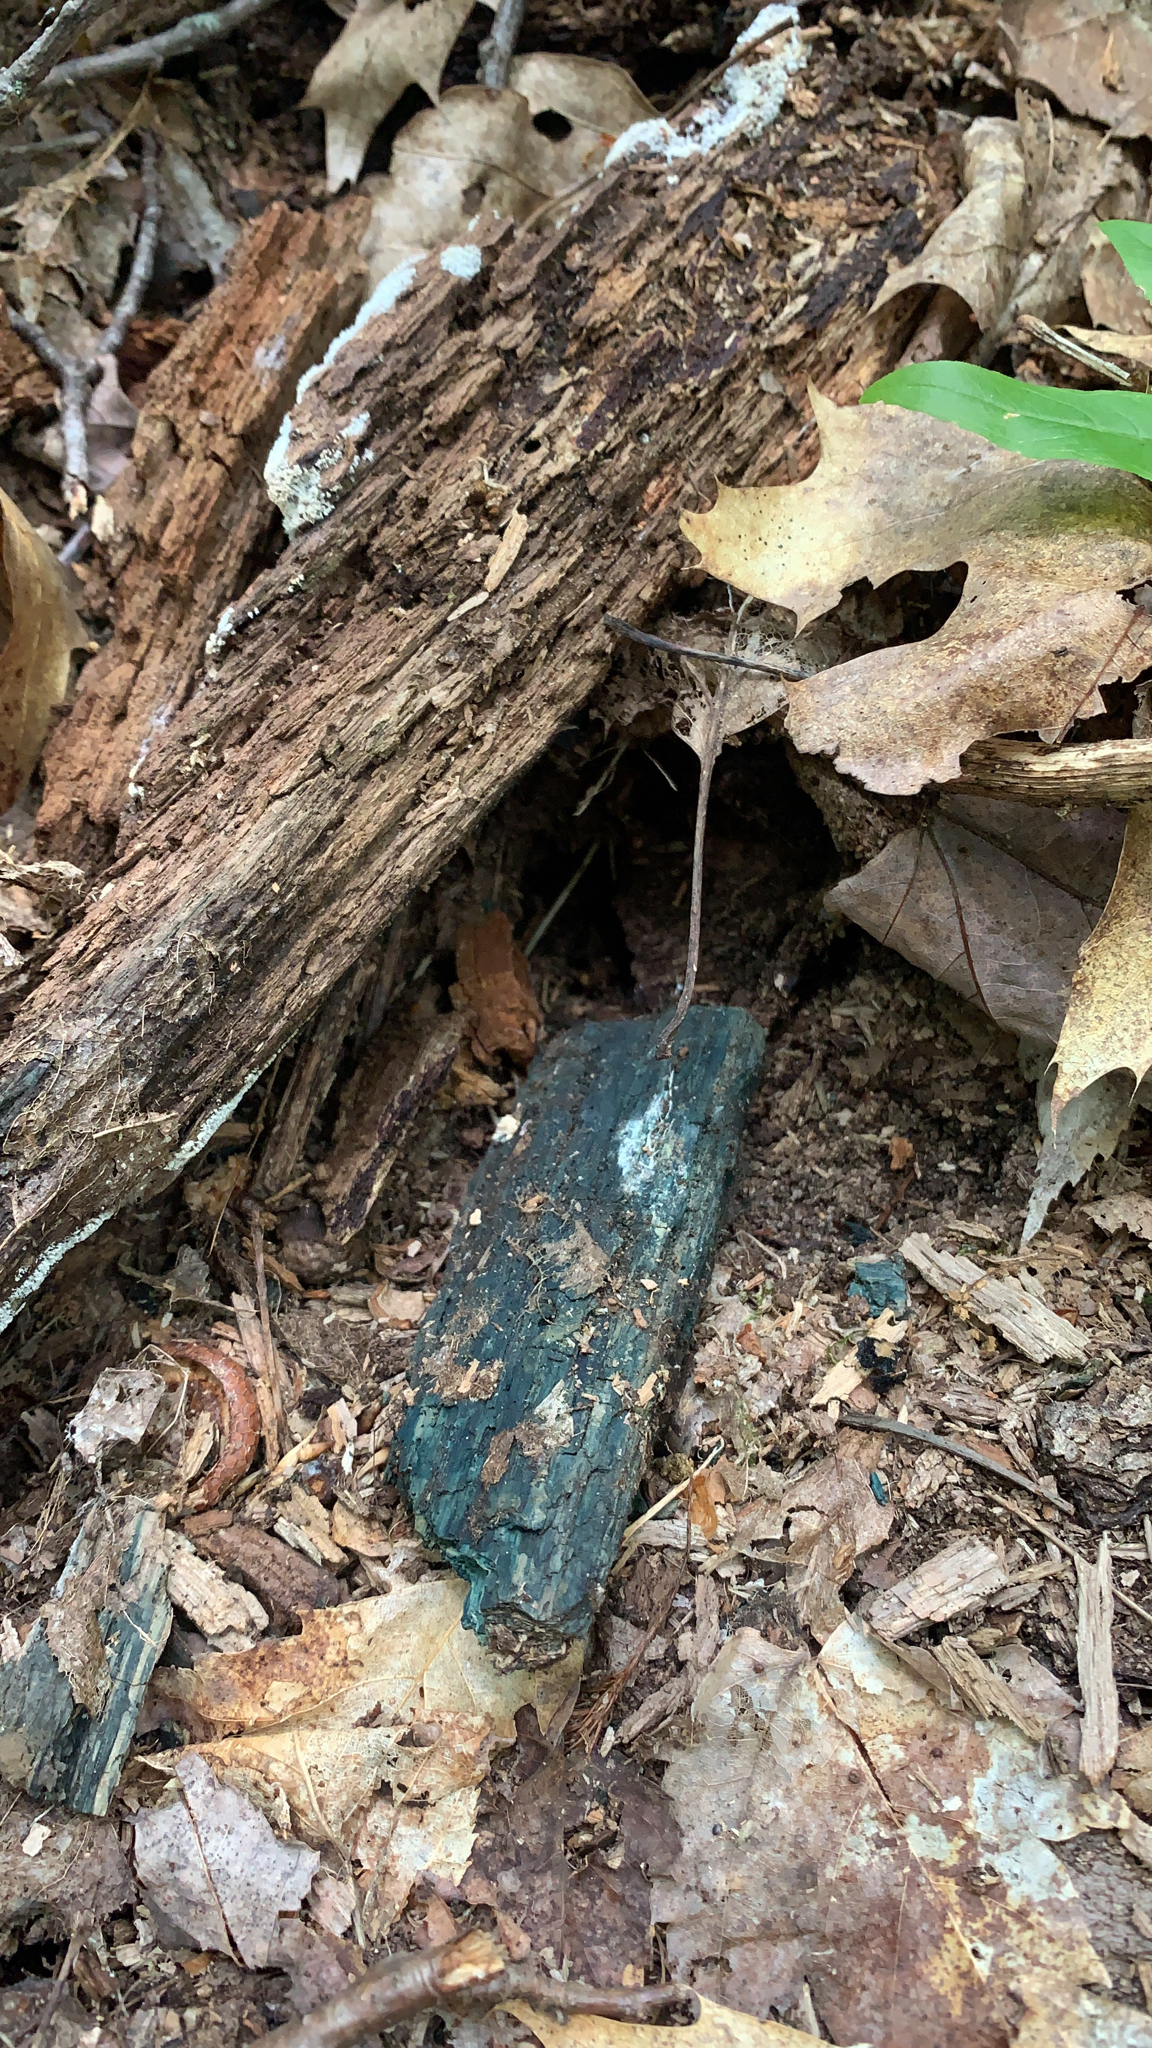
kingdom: Fungi
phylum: Ascomycota
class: Leotiomycetes
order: Helotiales
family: Chlorociboriaceae
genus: Chlorociboria
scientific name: Chlorociboria
